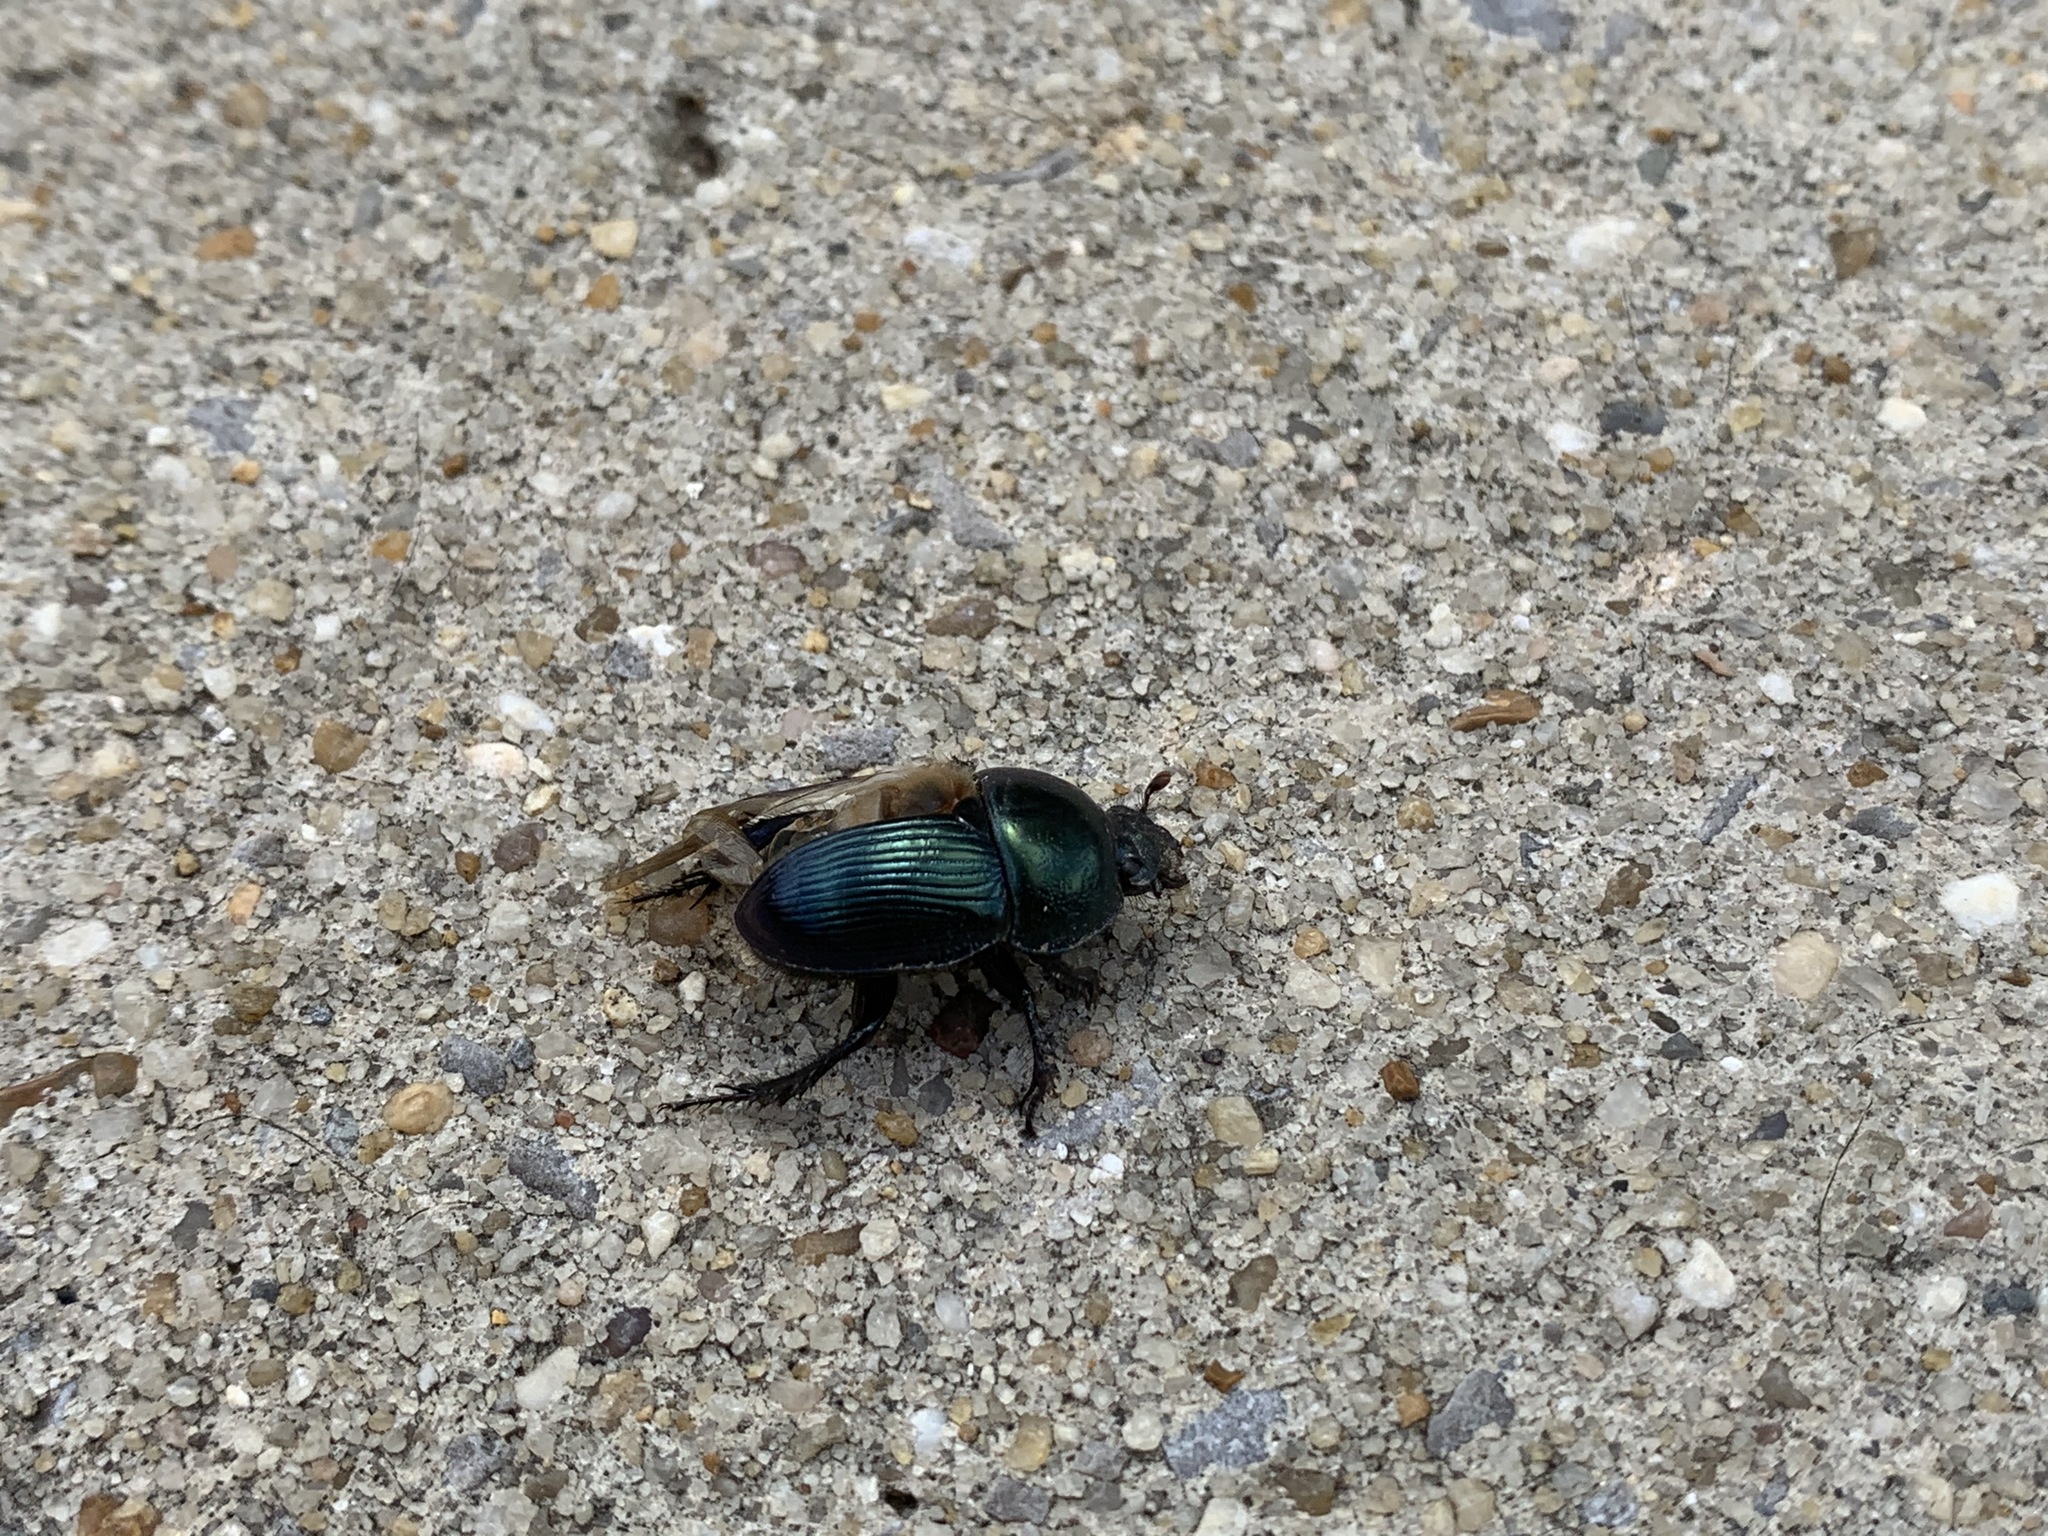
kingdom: Animalia
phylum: Arthropoda
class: Insecta
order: Coleoptera
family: Geotrupidae
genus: Geotrupes
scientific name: Geotrupes splendidus
